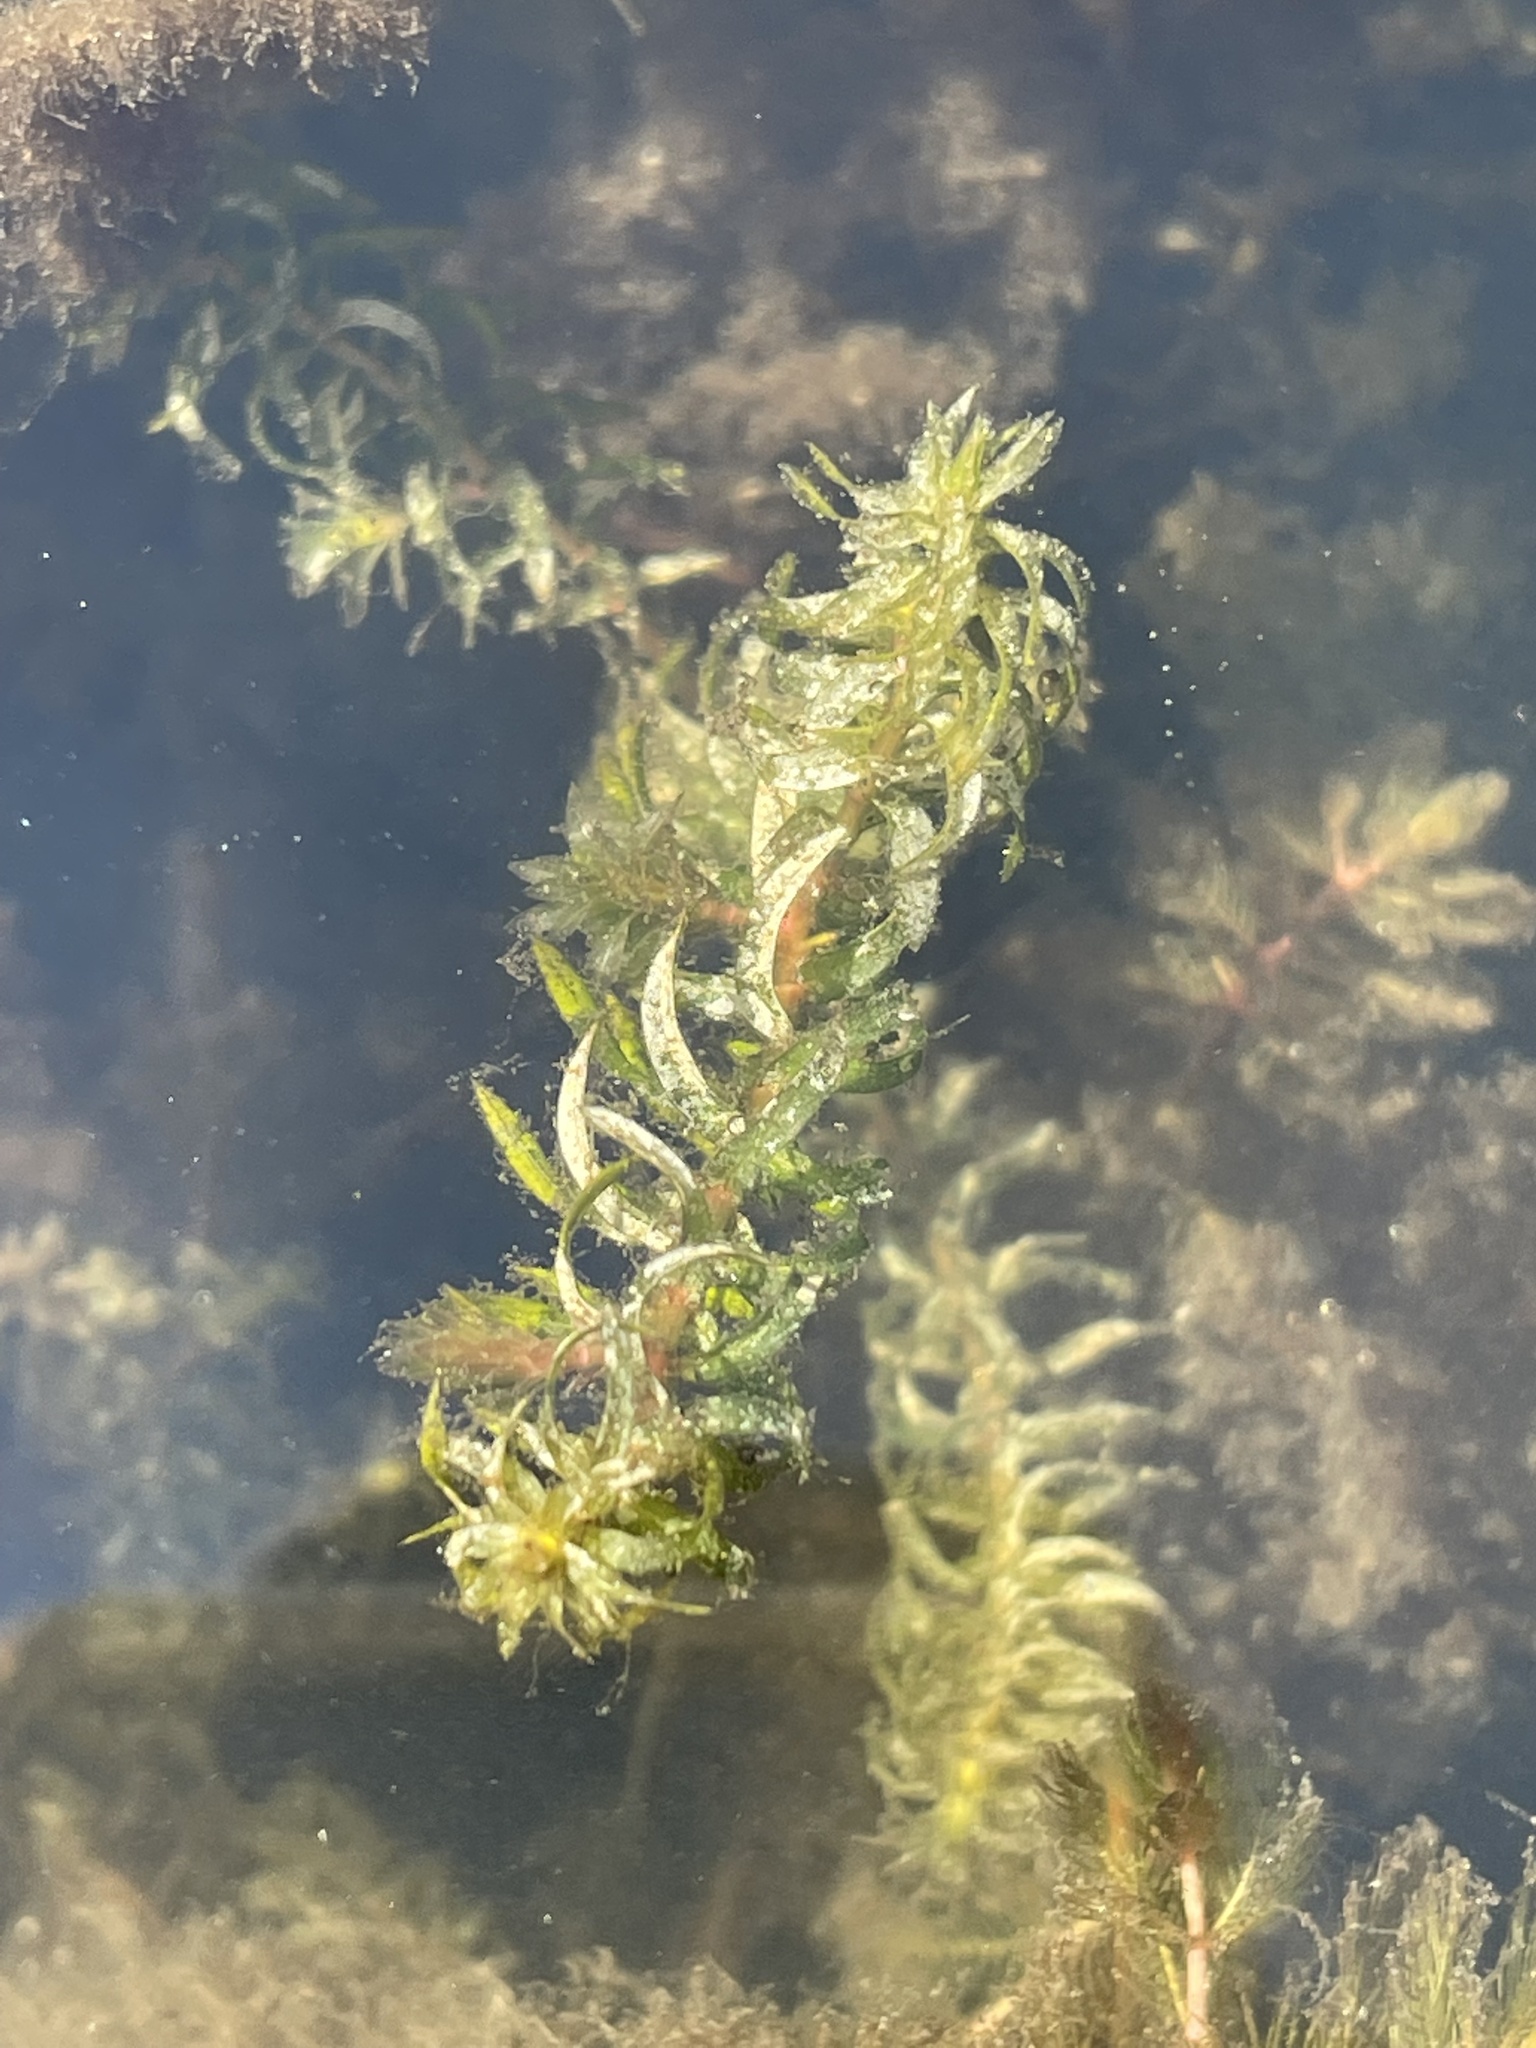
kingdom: Plantae
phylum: Tracheophyta
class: Liliopsida
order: Alismatales
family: Hydrocharitaceae
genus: Elodea
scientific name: Elodea canadensis
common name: Canadian waterweed
